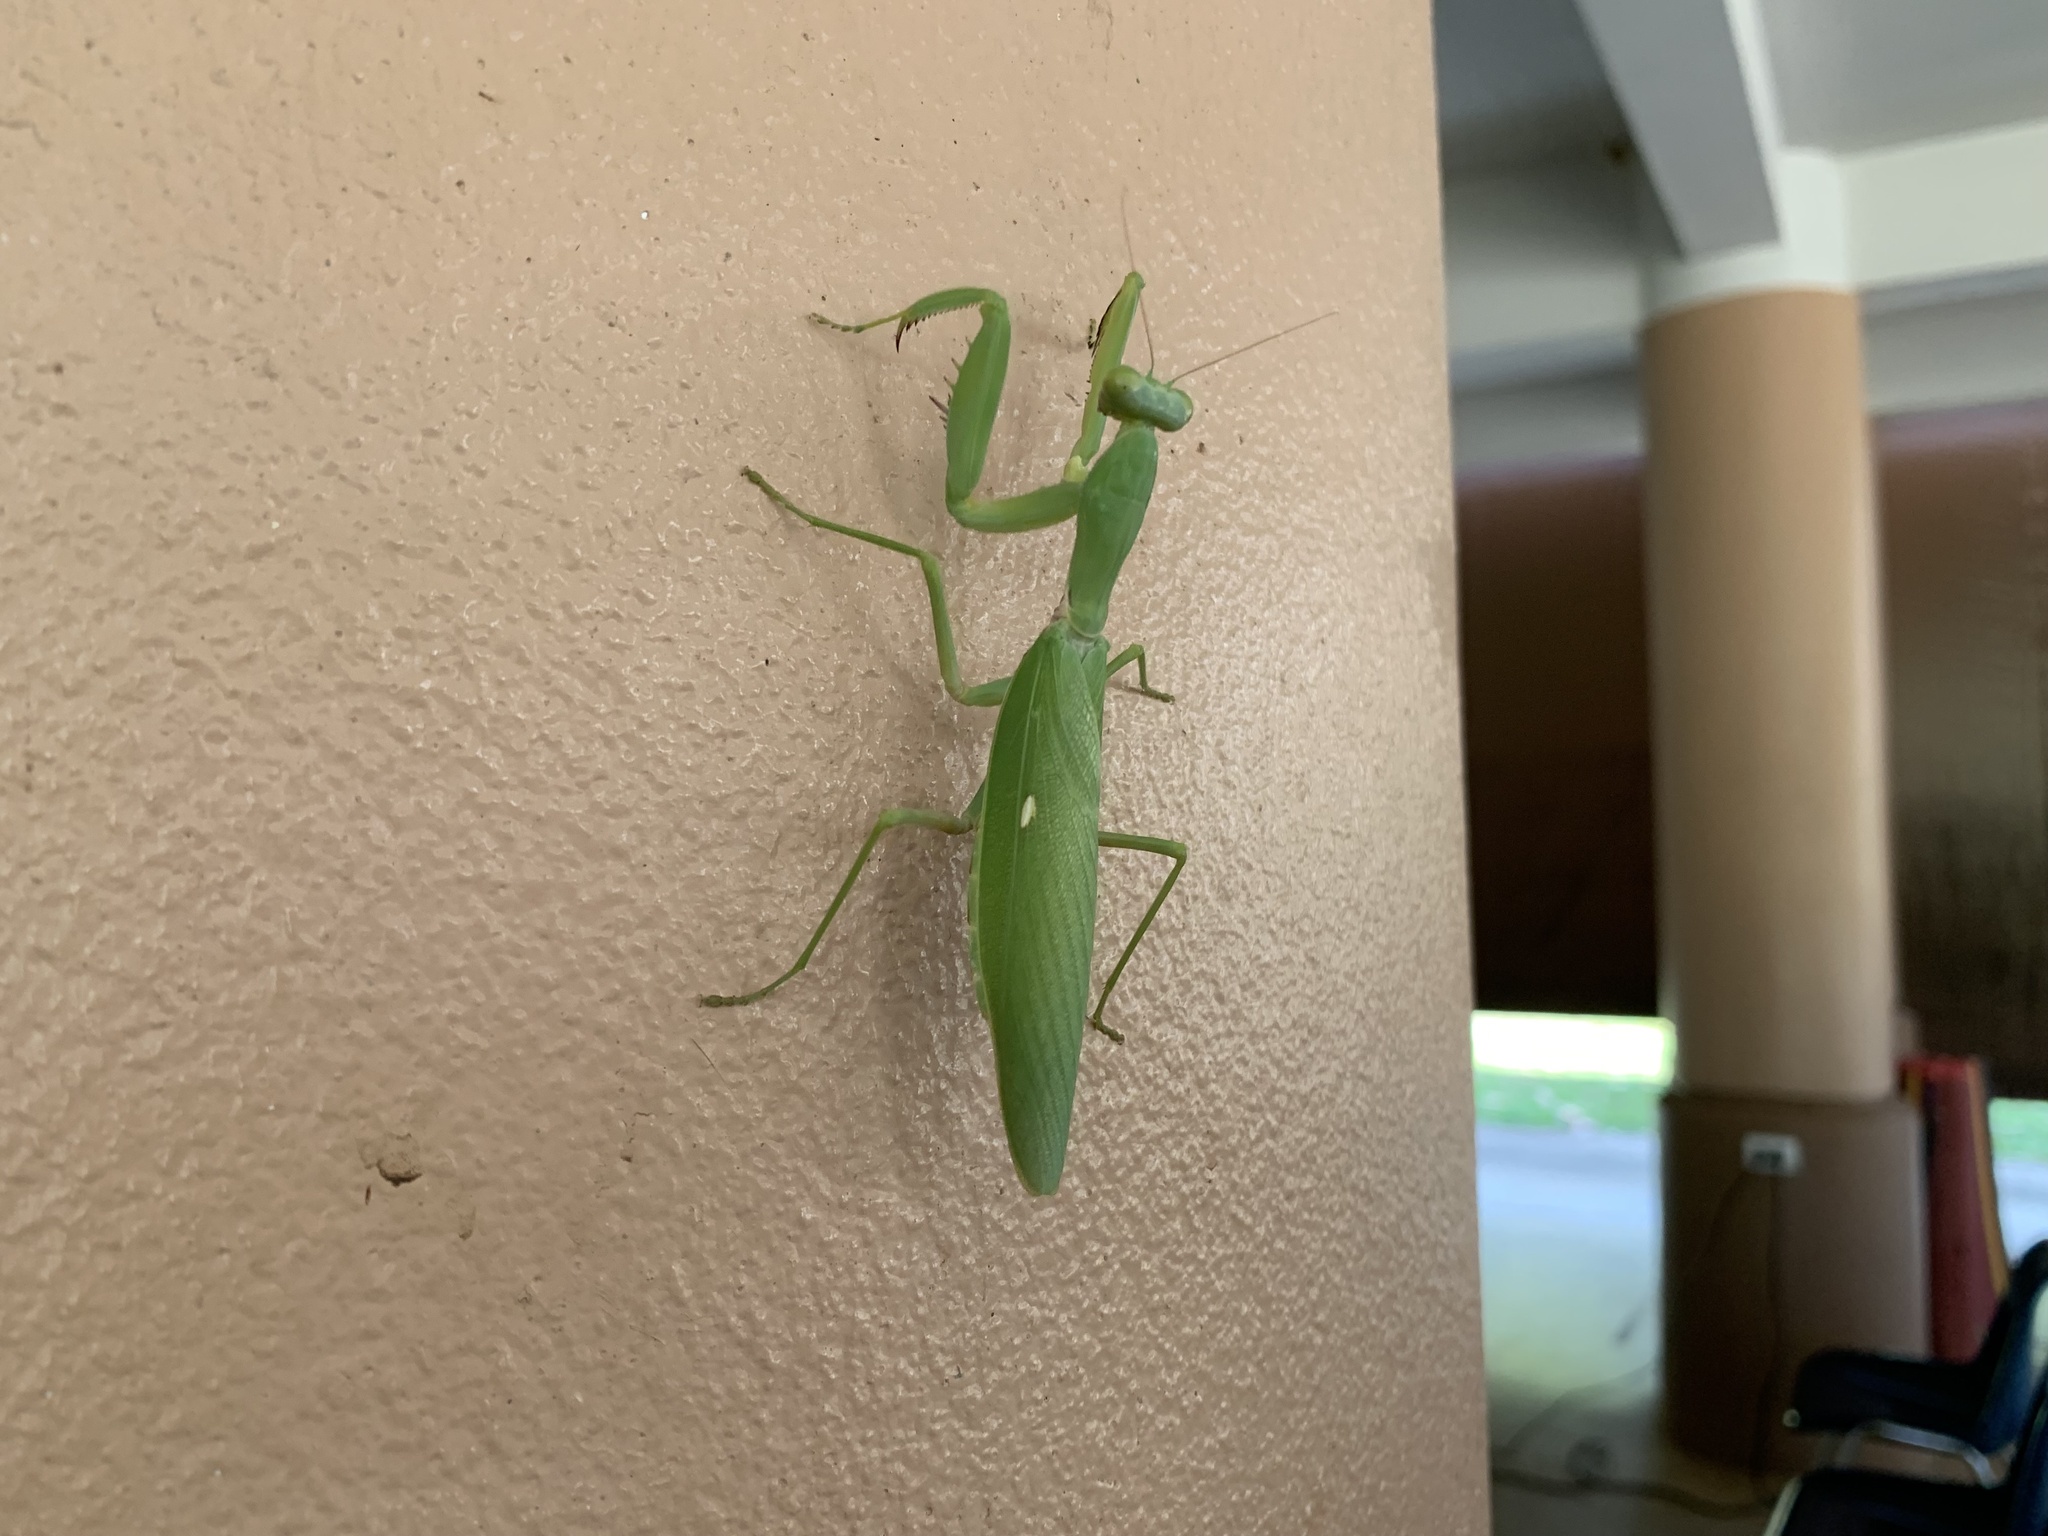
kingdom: Animalia
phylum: Arthropoda
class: Insecta
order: Mantodea
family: Mantidae
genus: Hierodula
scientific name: Hierodula patellifera
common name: Asian mantis
